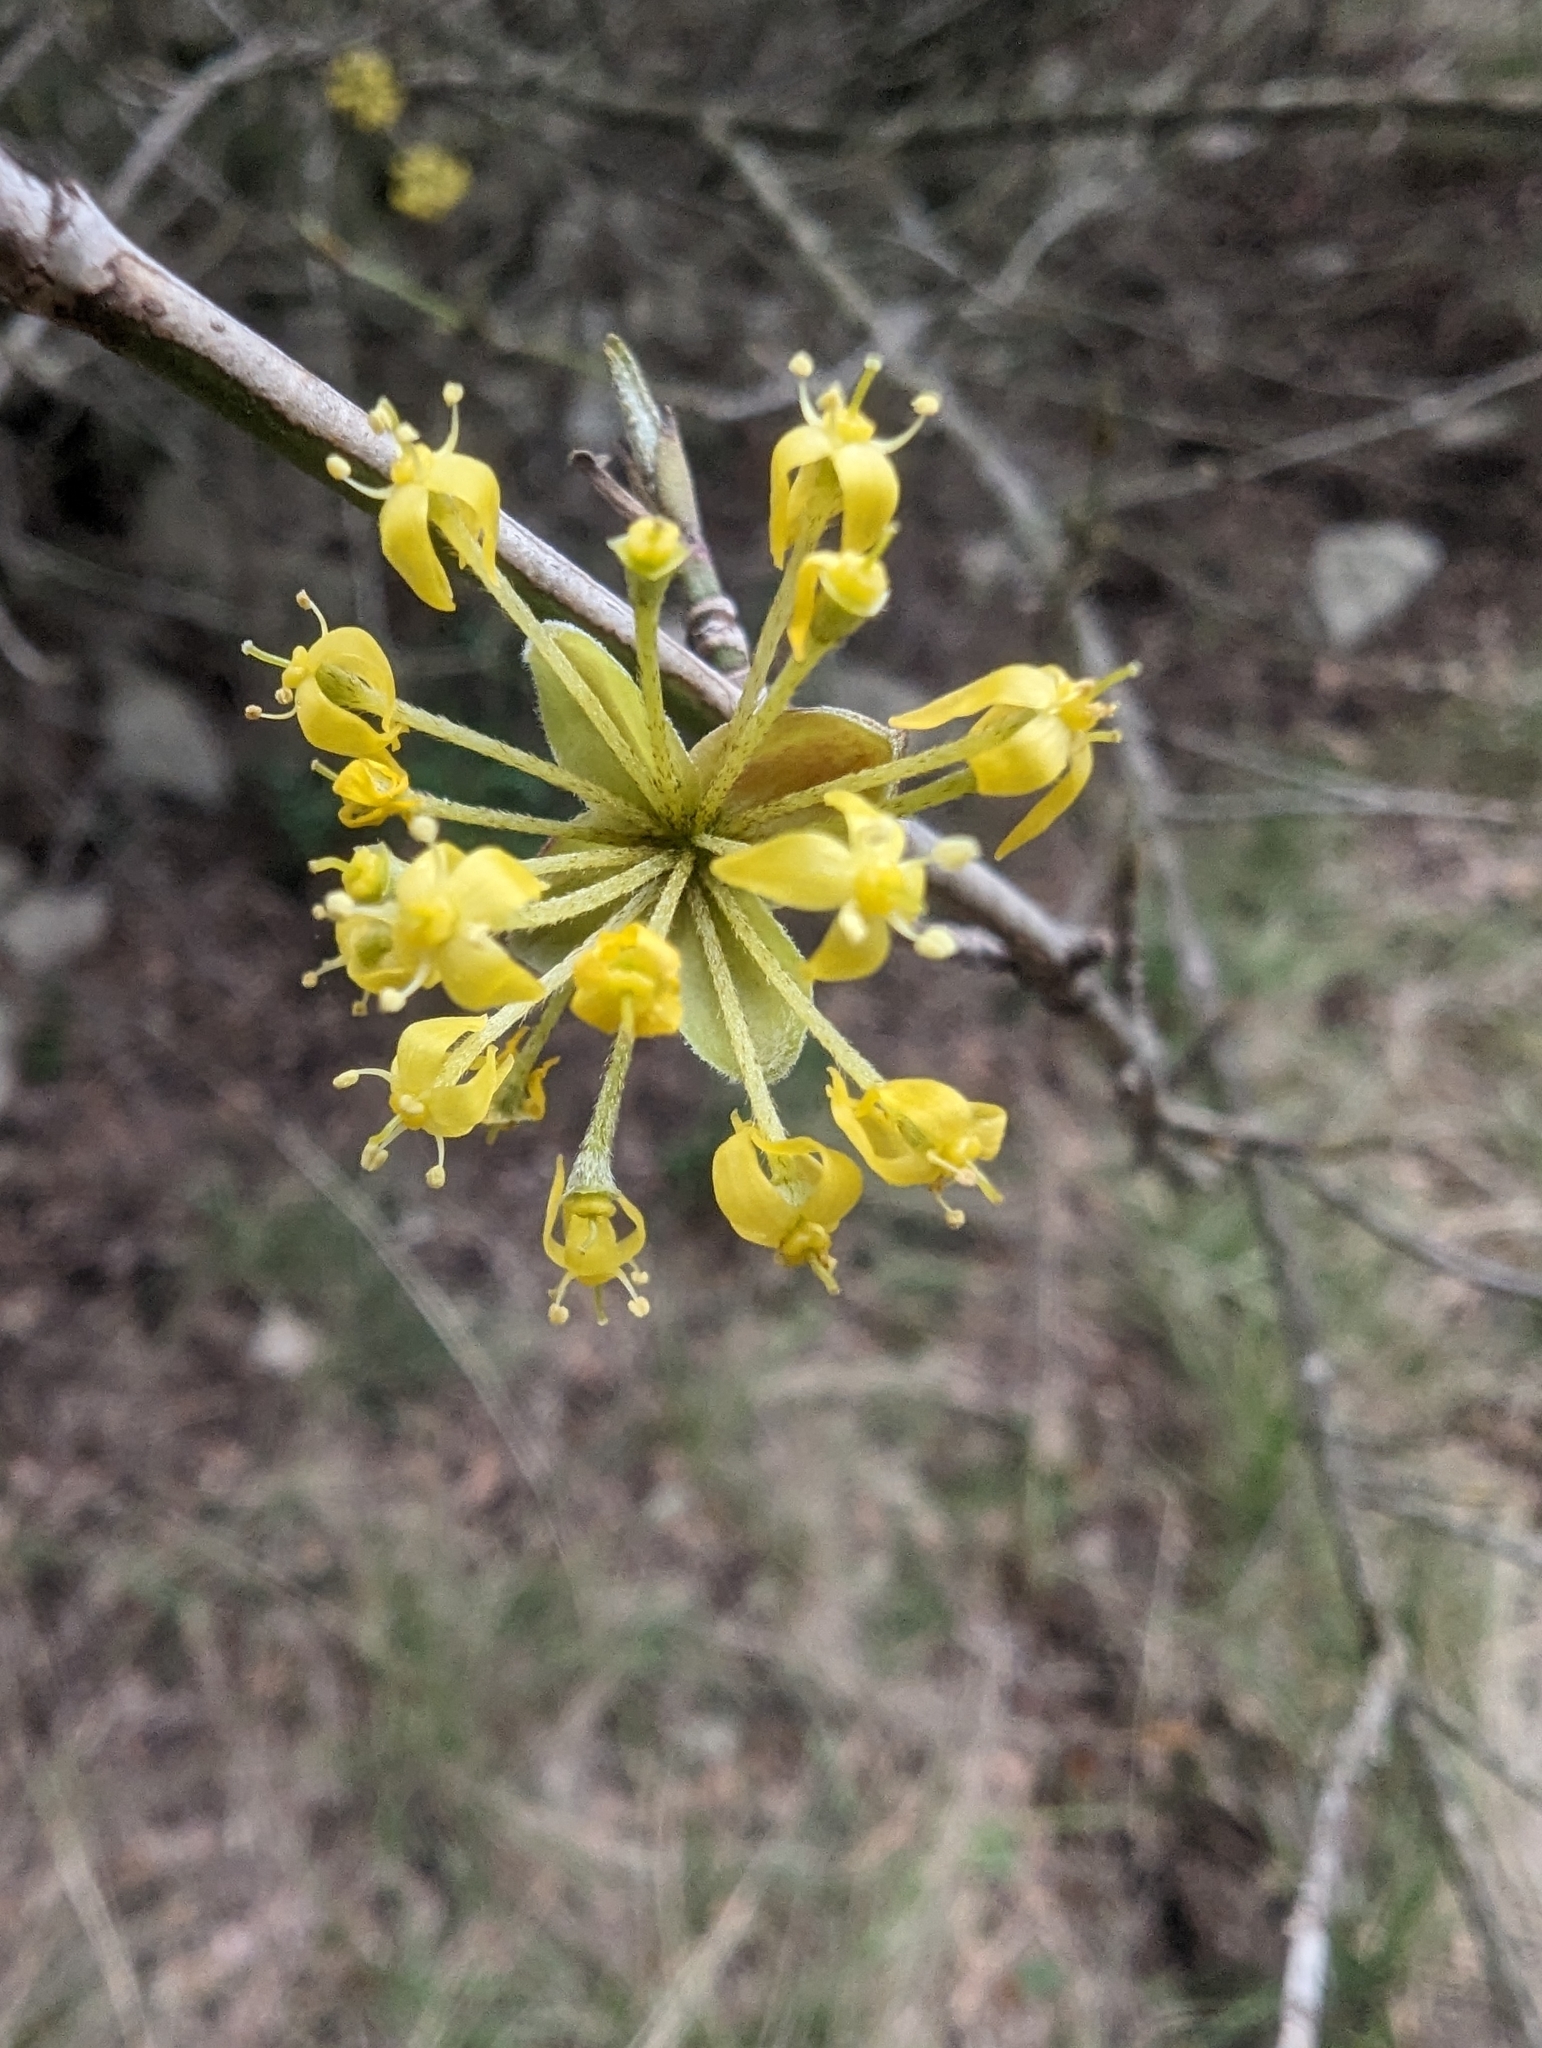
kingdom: Plantae
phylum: Tracheophyta
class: Magnoliopsida
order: Cornales
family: Cornaceae
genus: Cornus
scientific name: Cornus mas
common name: Cornelian-cherry
